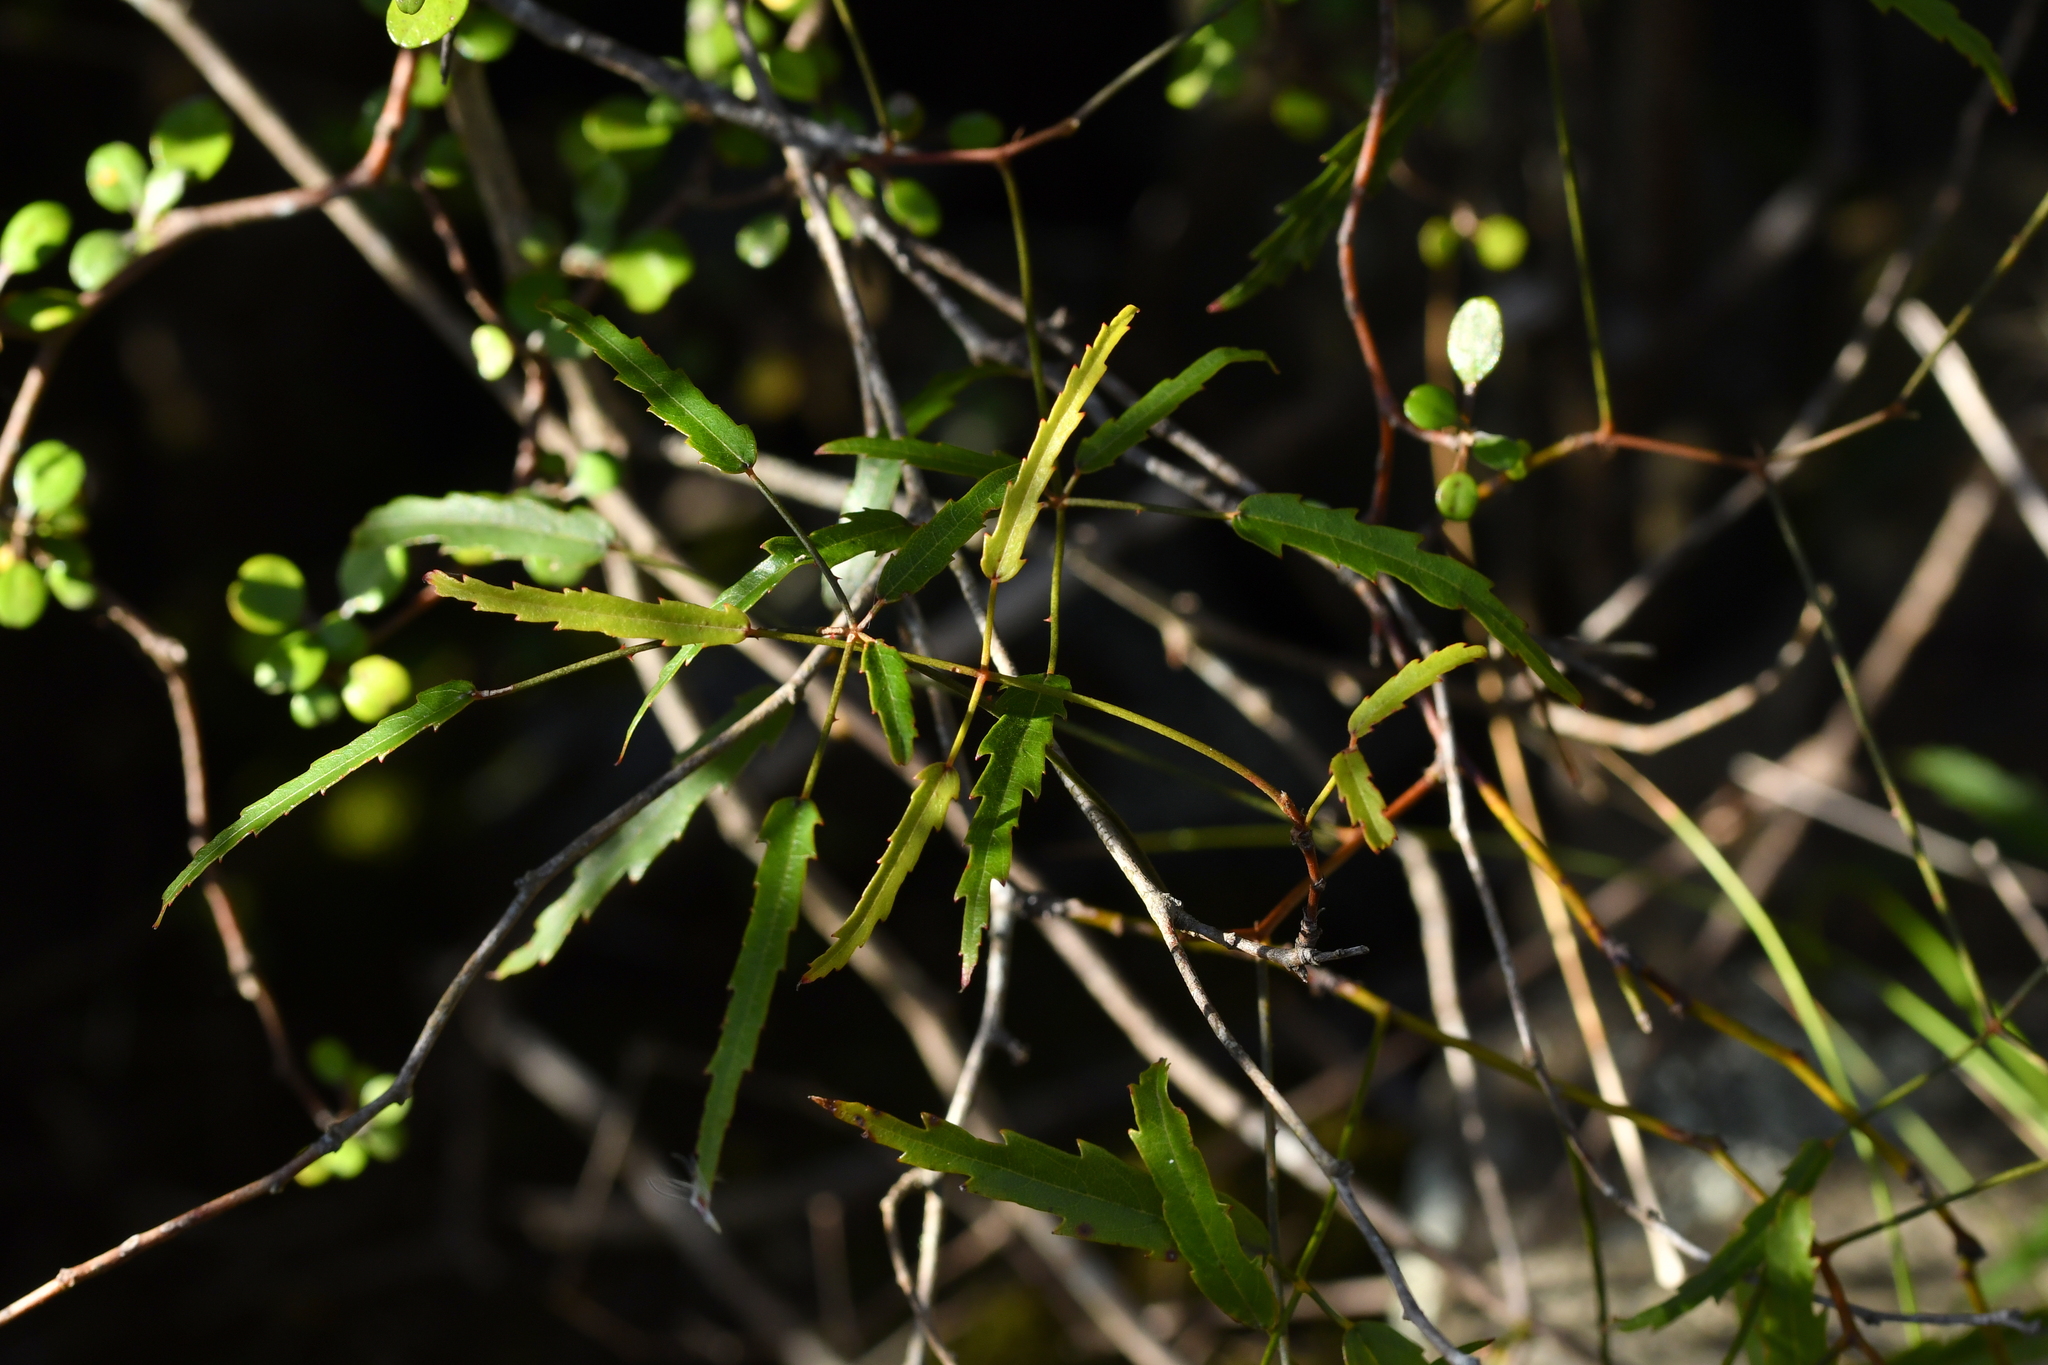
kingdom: Plantae
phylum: Tracheophyta
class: Magnoliopsida
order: Rosales
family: Rosaceae
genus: Rubus
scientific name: Rubus schmidelioides
